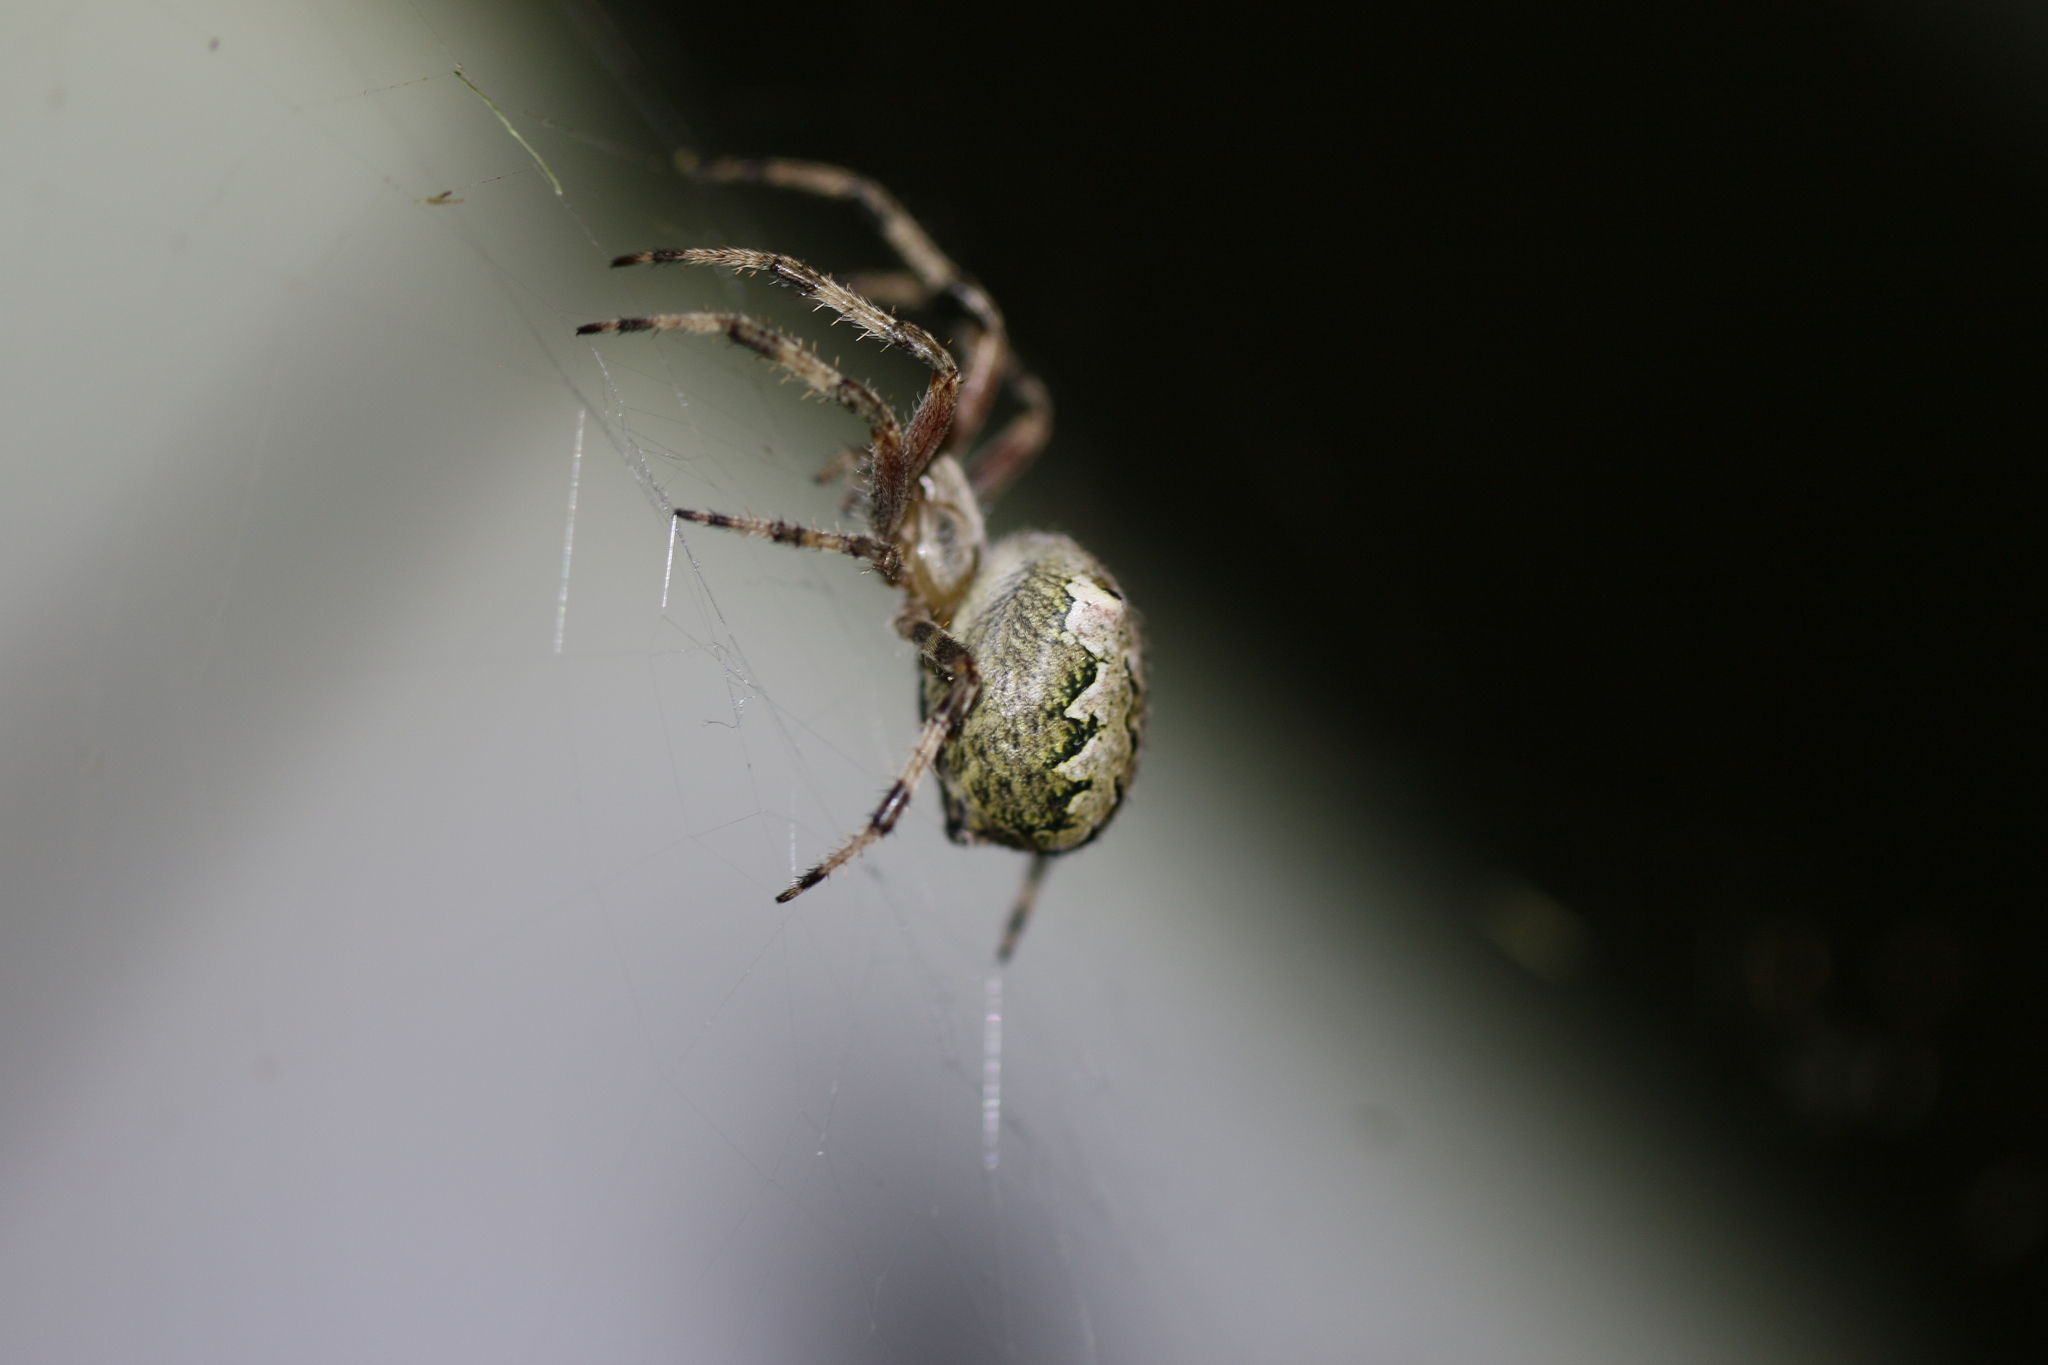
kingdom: Animalia
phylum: Arthropoda
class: Arachnida
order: Araneae
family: Araneidae
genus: Araneus
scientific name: Araneus nordmanni
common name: Nordmann's orbweaver
